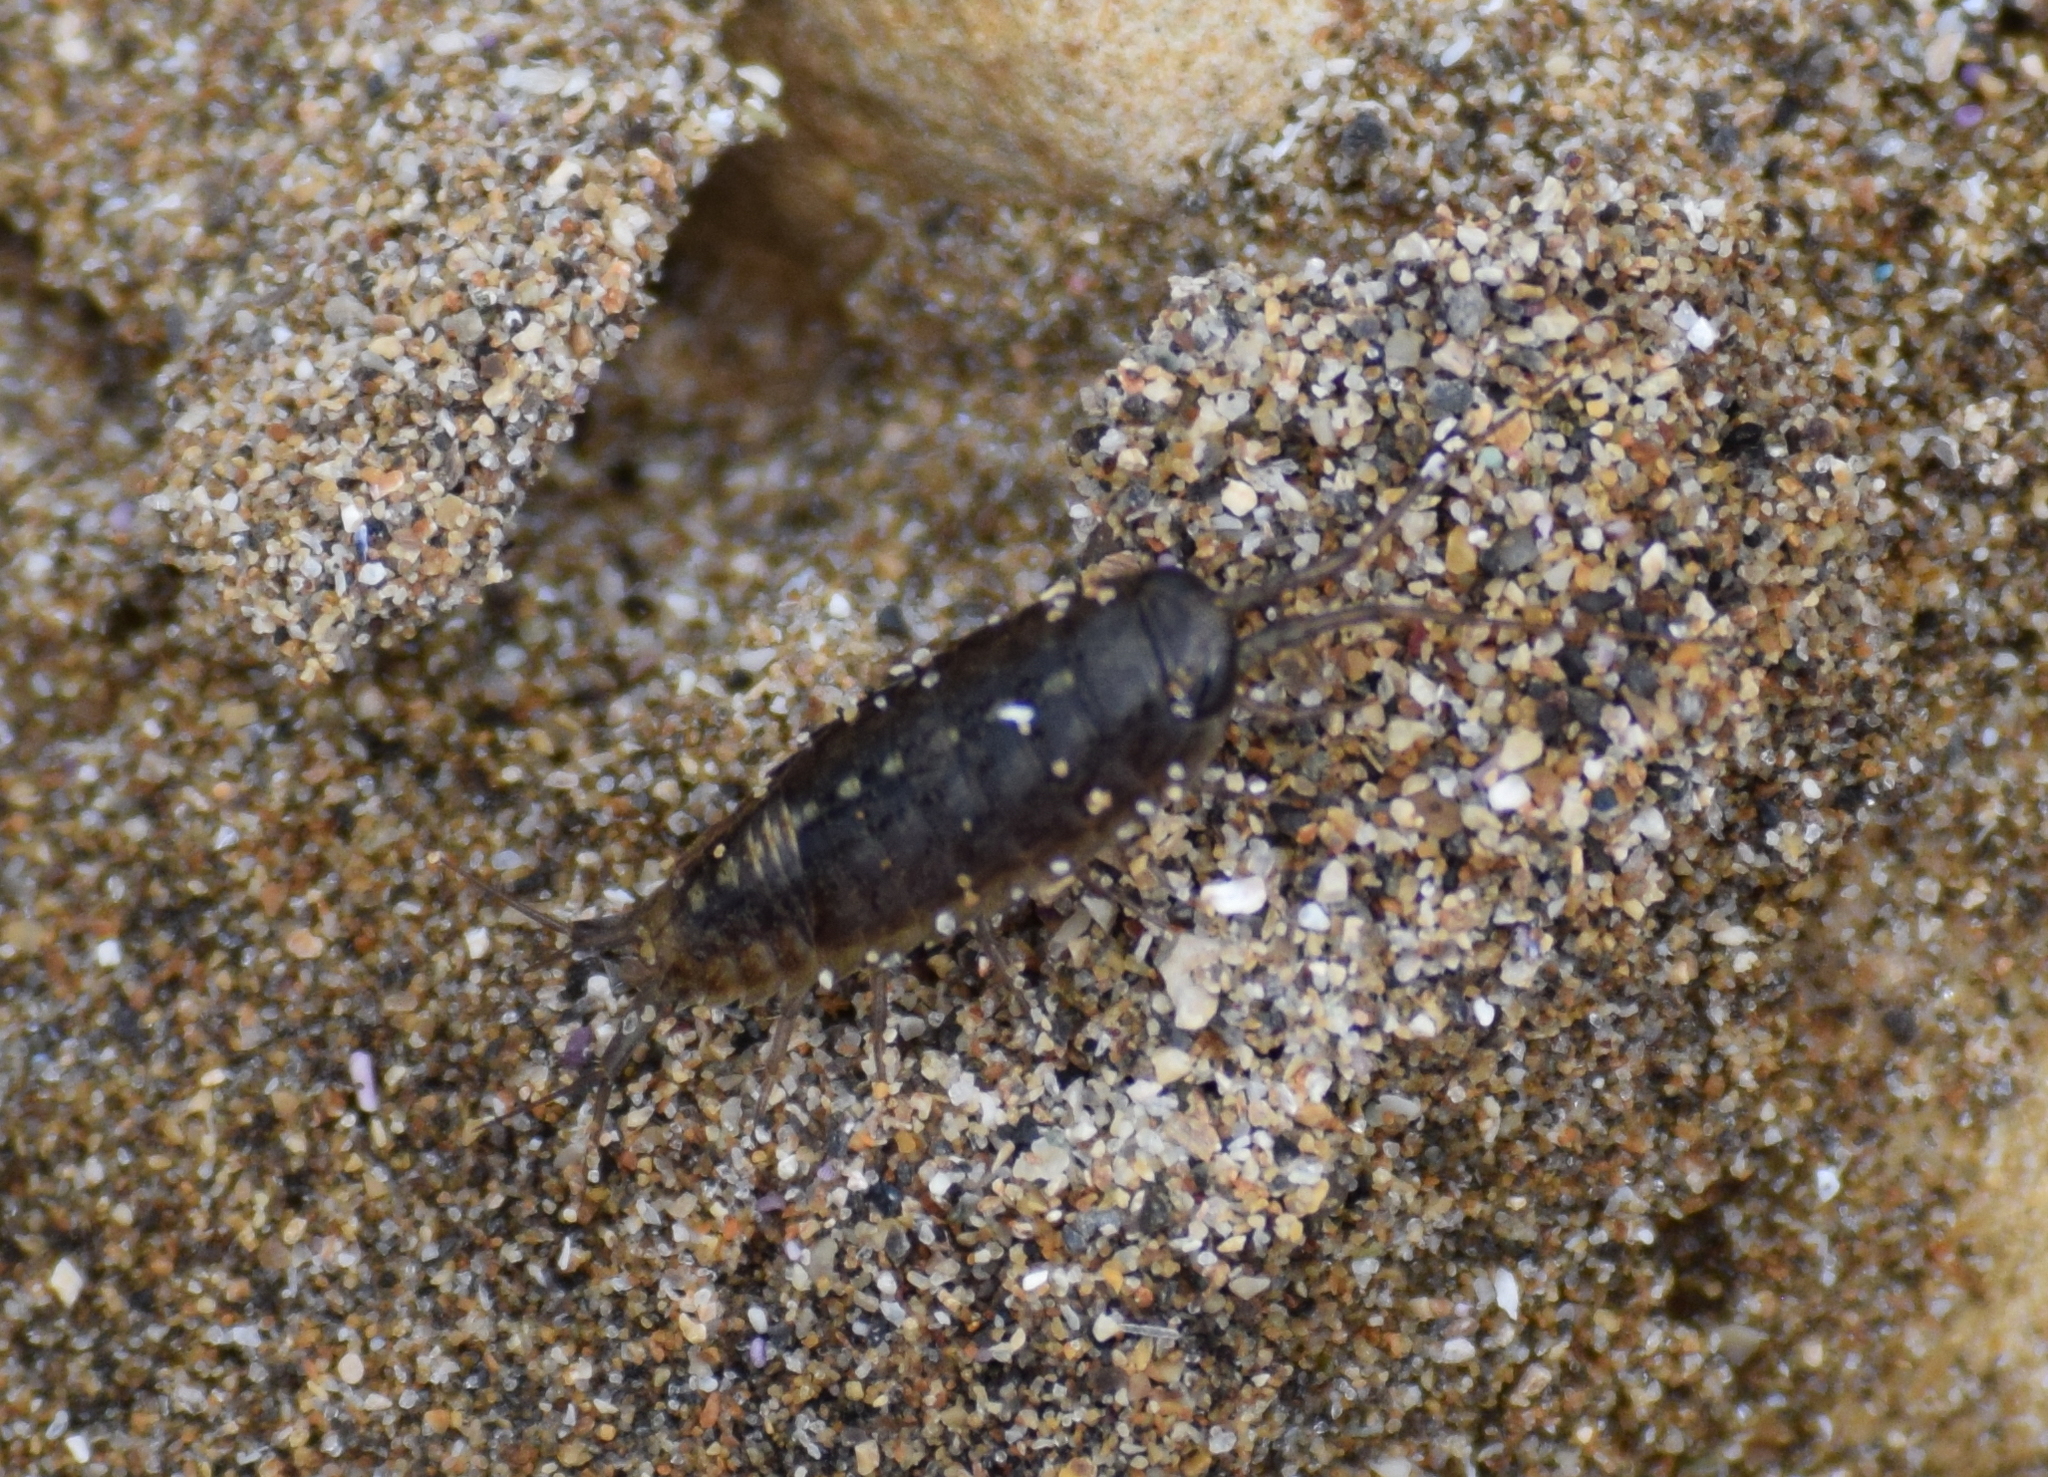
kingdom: Animalia
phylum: Arthropoda
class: Malacostraca
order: Isopoda
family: Ligiidae
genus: Ligia
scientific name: Ligia occidentalis
